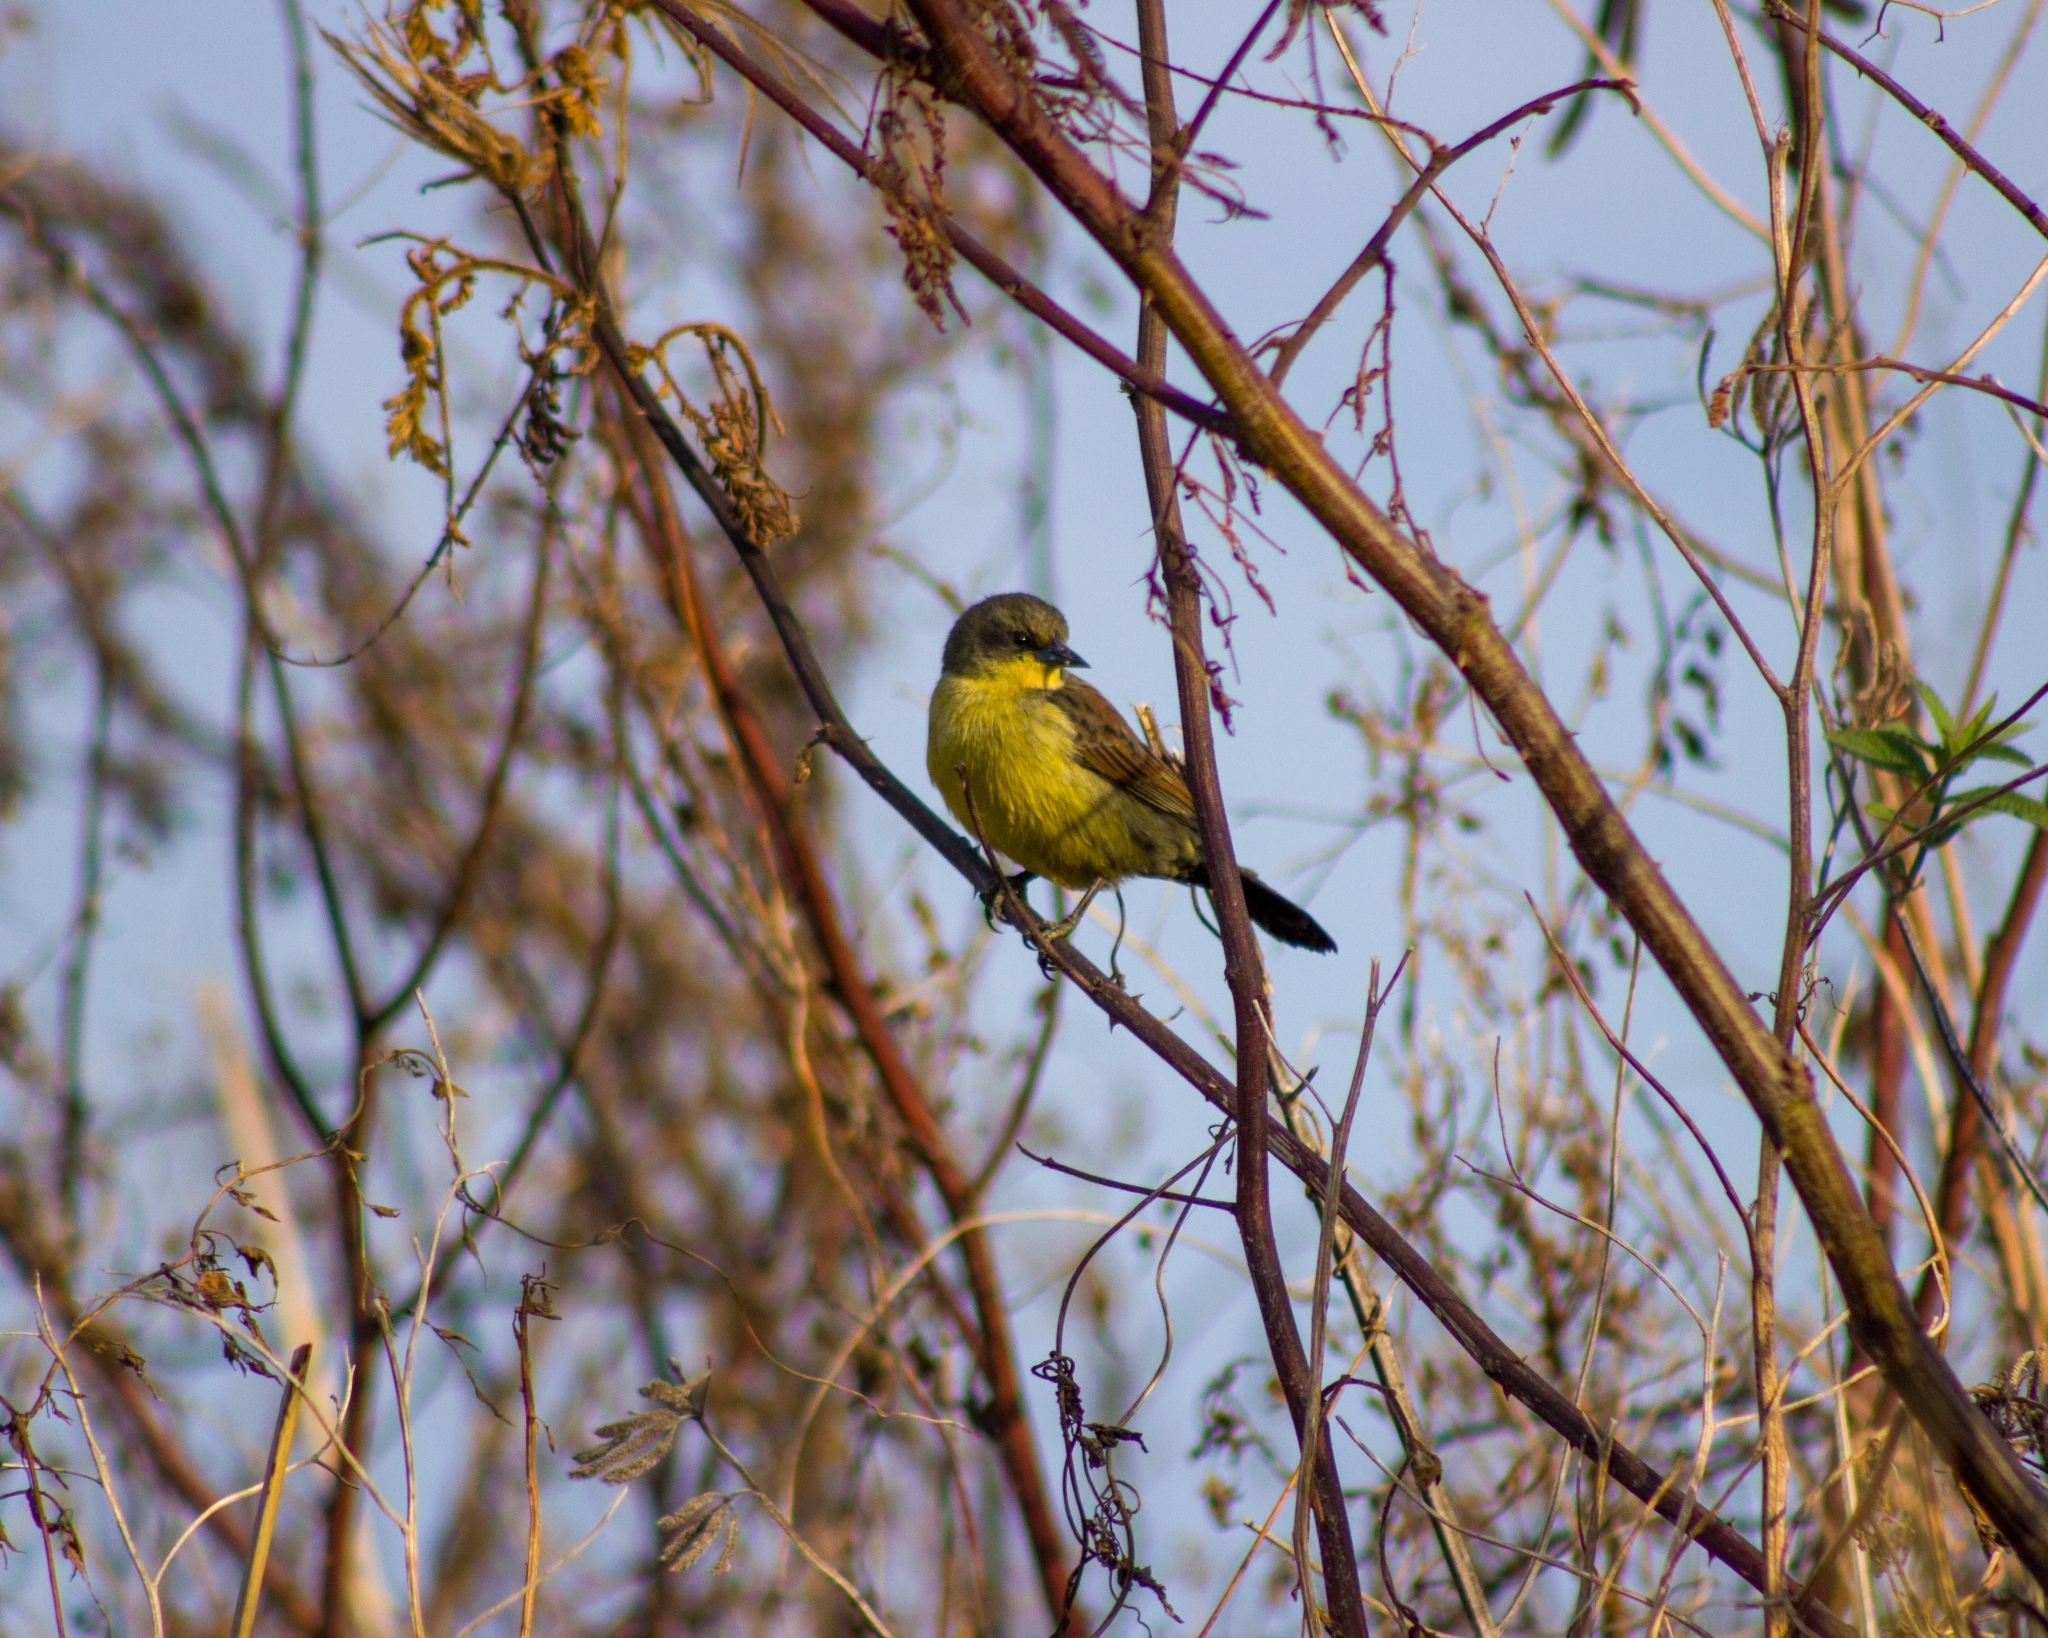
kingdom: Animalia
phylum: Chordata
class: Aves
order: Passeriformes
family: Icteridae
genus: Agelasticus
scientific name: Agelasticus cyanopus
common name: Unicolored blackbird
